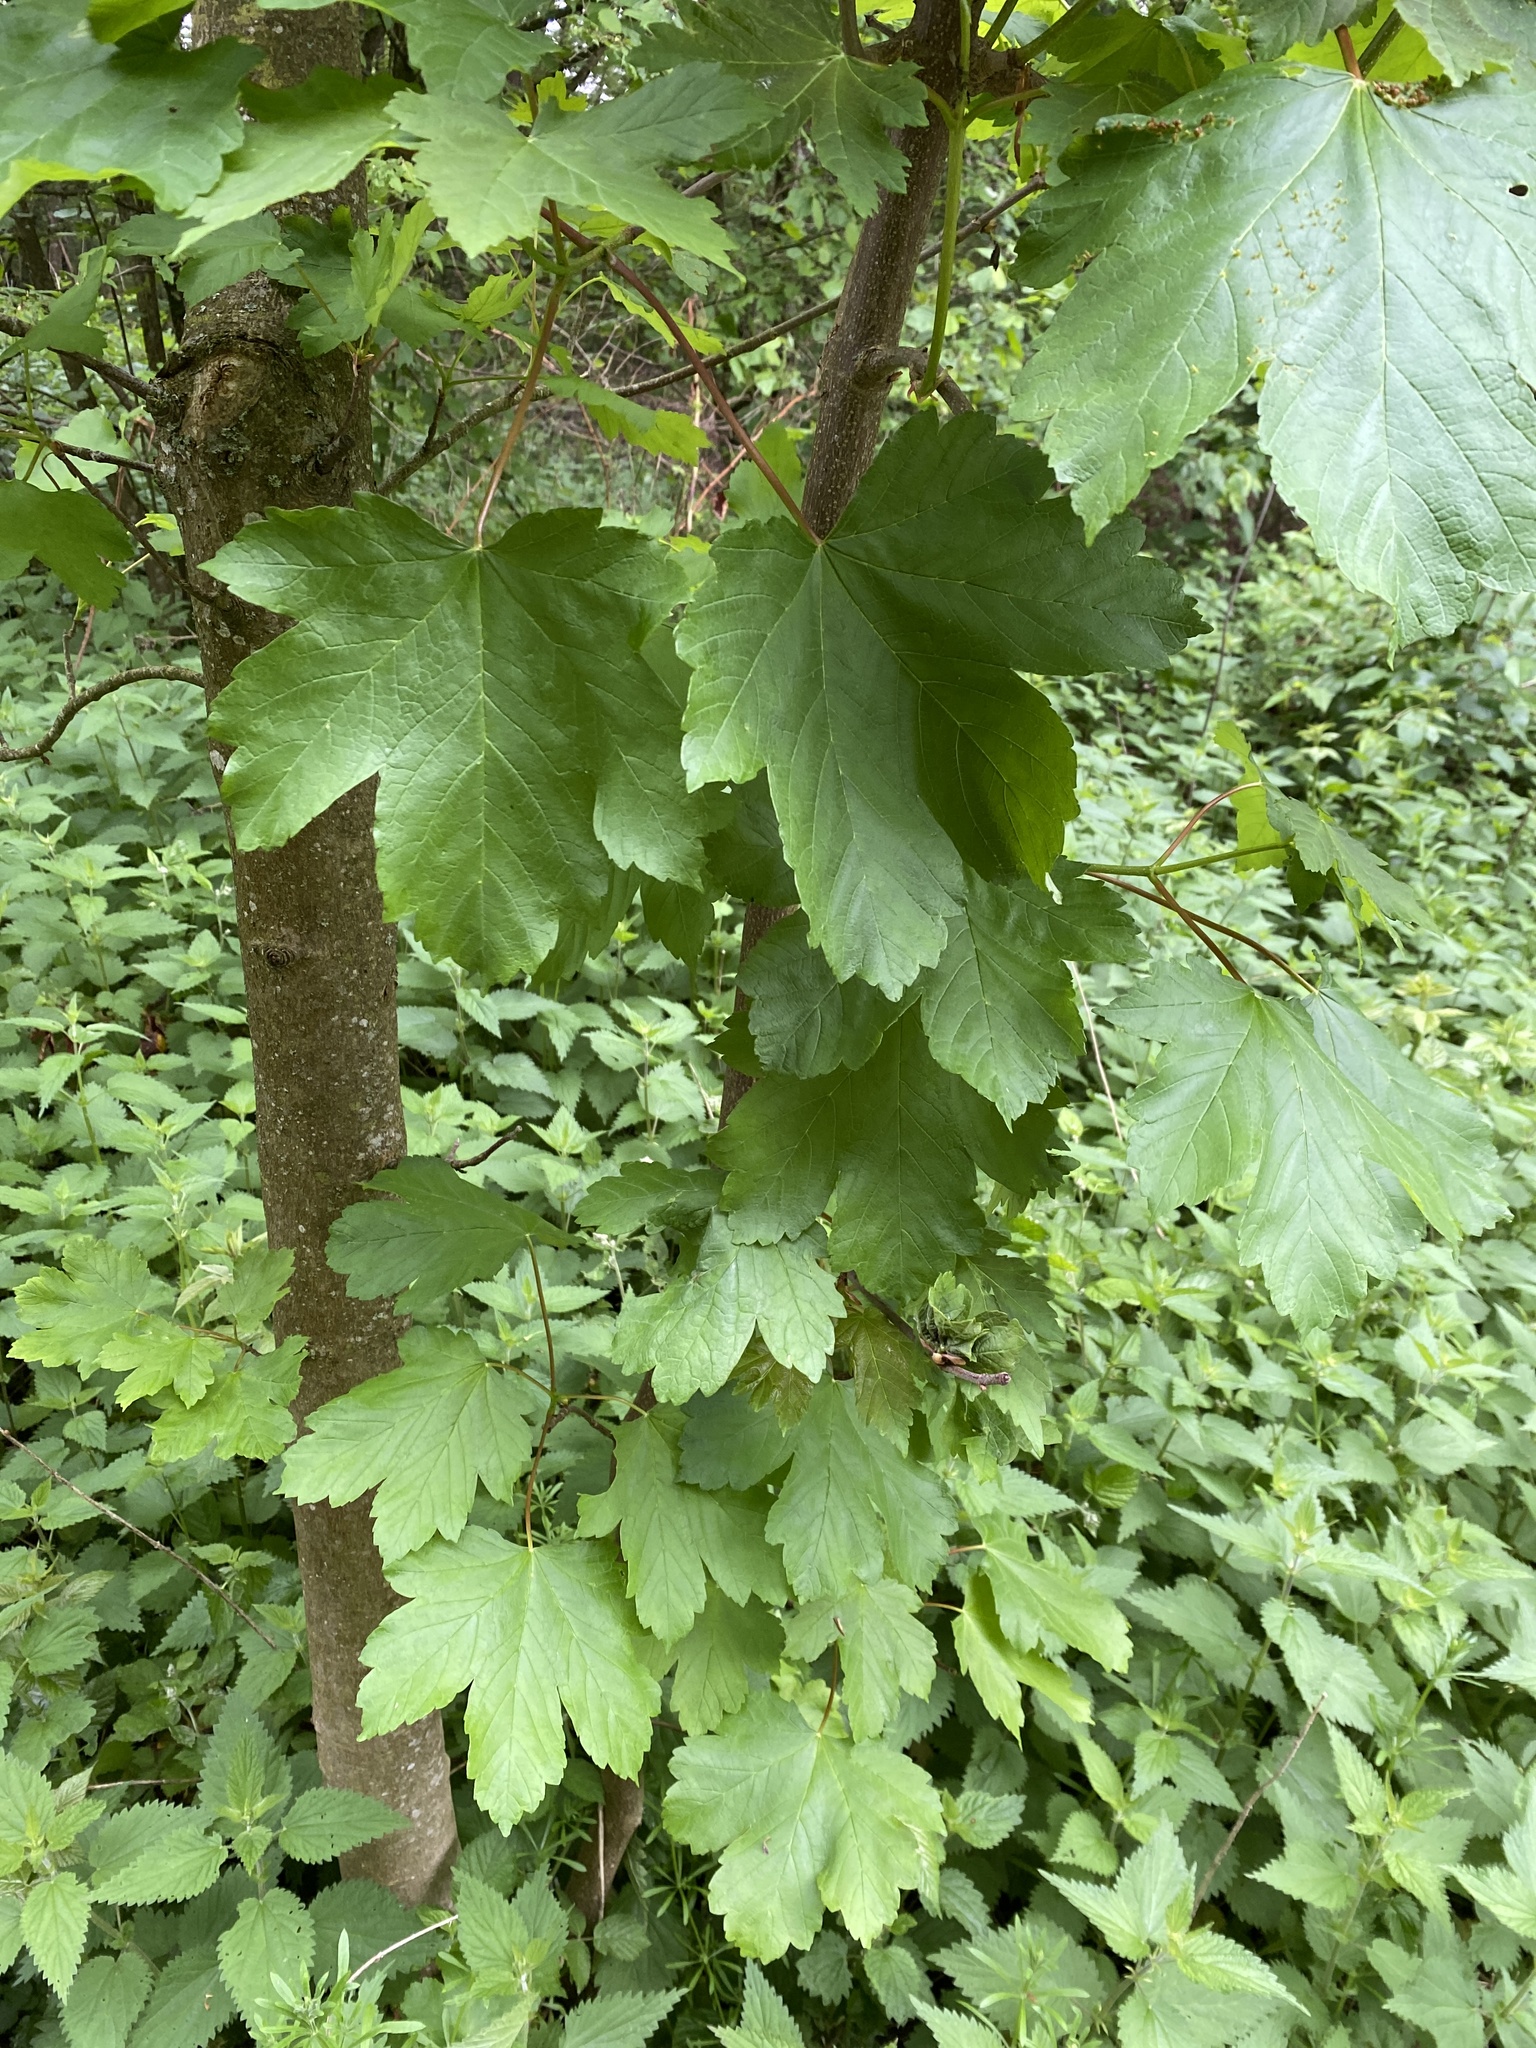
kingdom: Plantae
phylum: Tracheophyta
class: Magnoliopsida
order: Sapindales
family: Sapindaceae
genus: Acer
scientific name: Acer pseudoplatanus
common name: Sycamore
